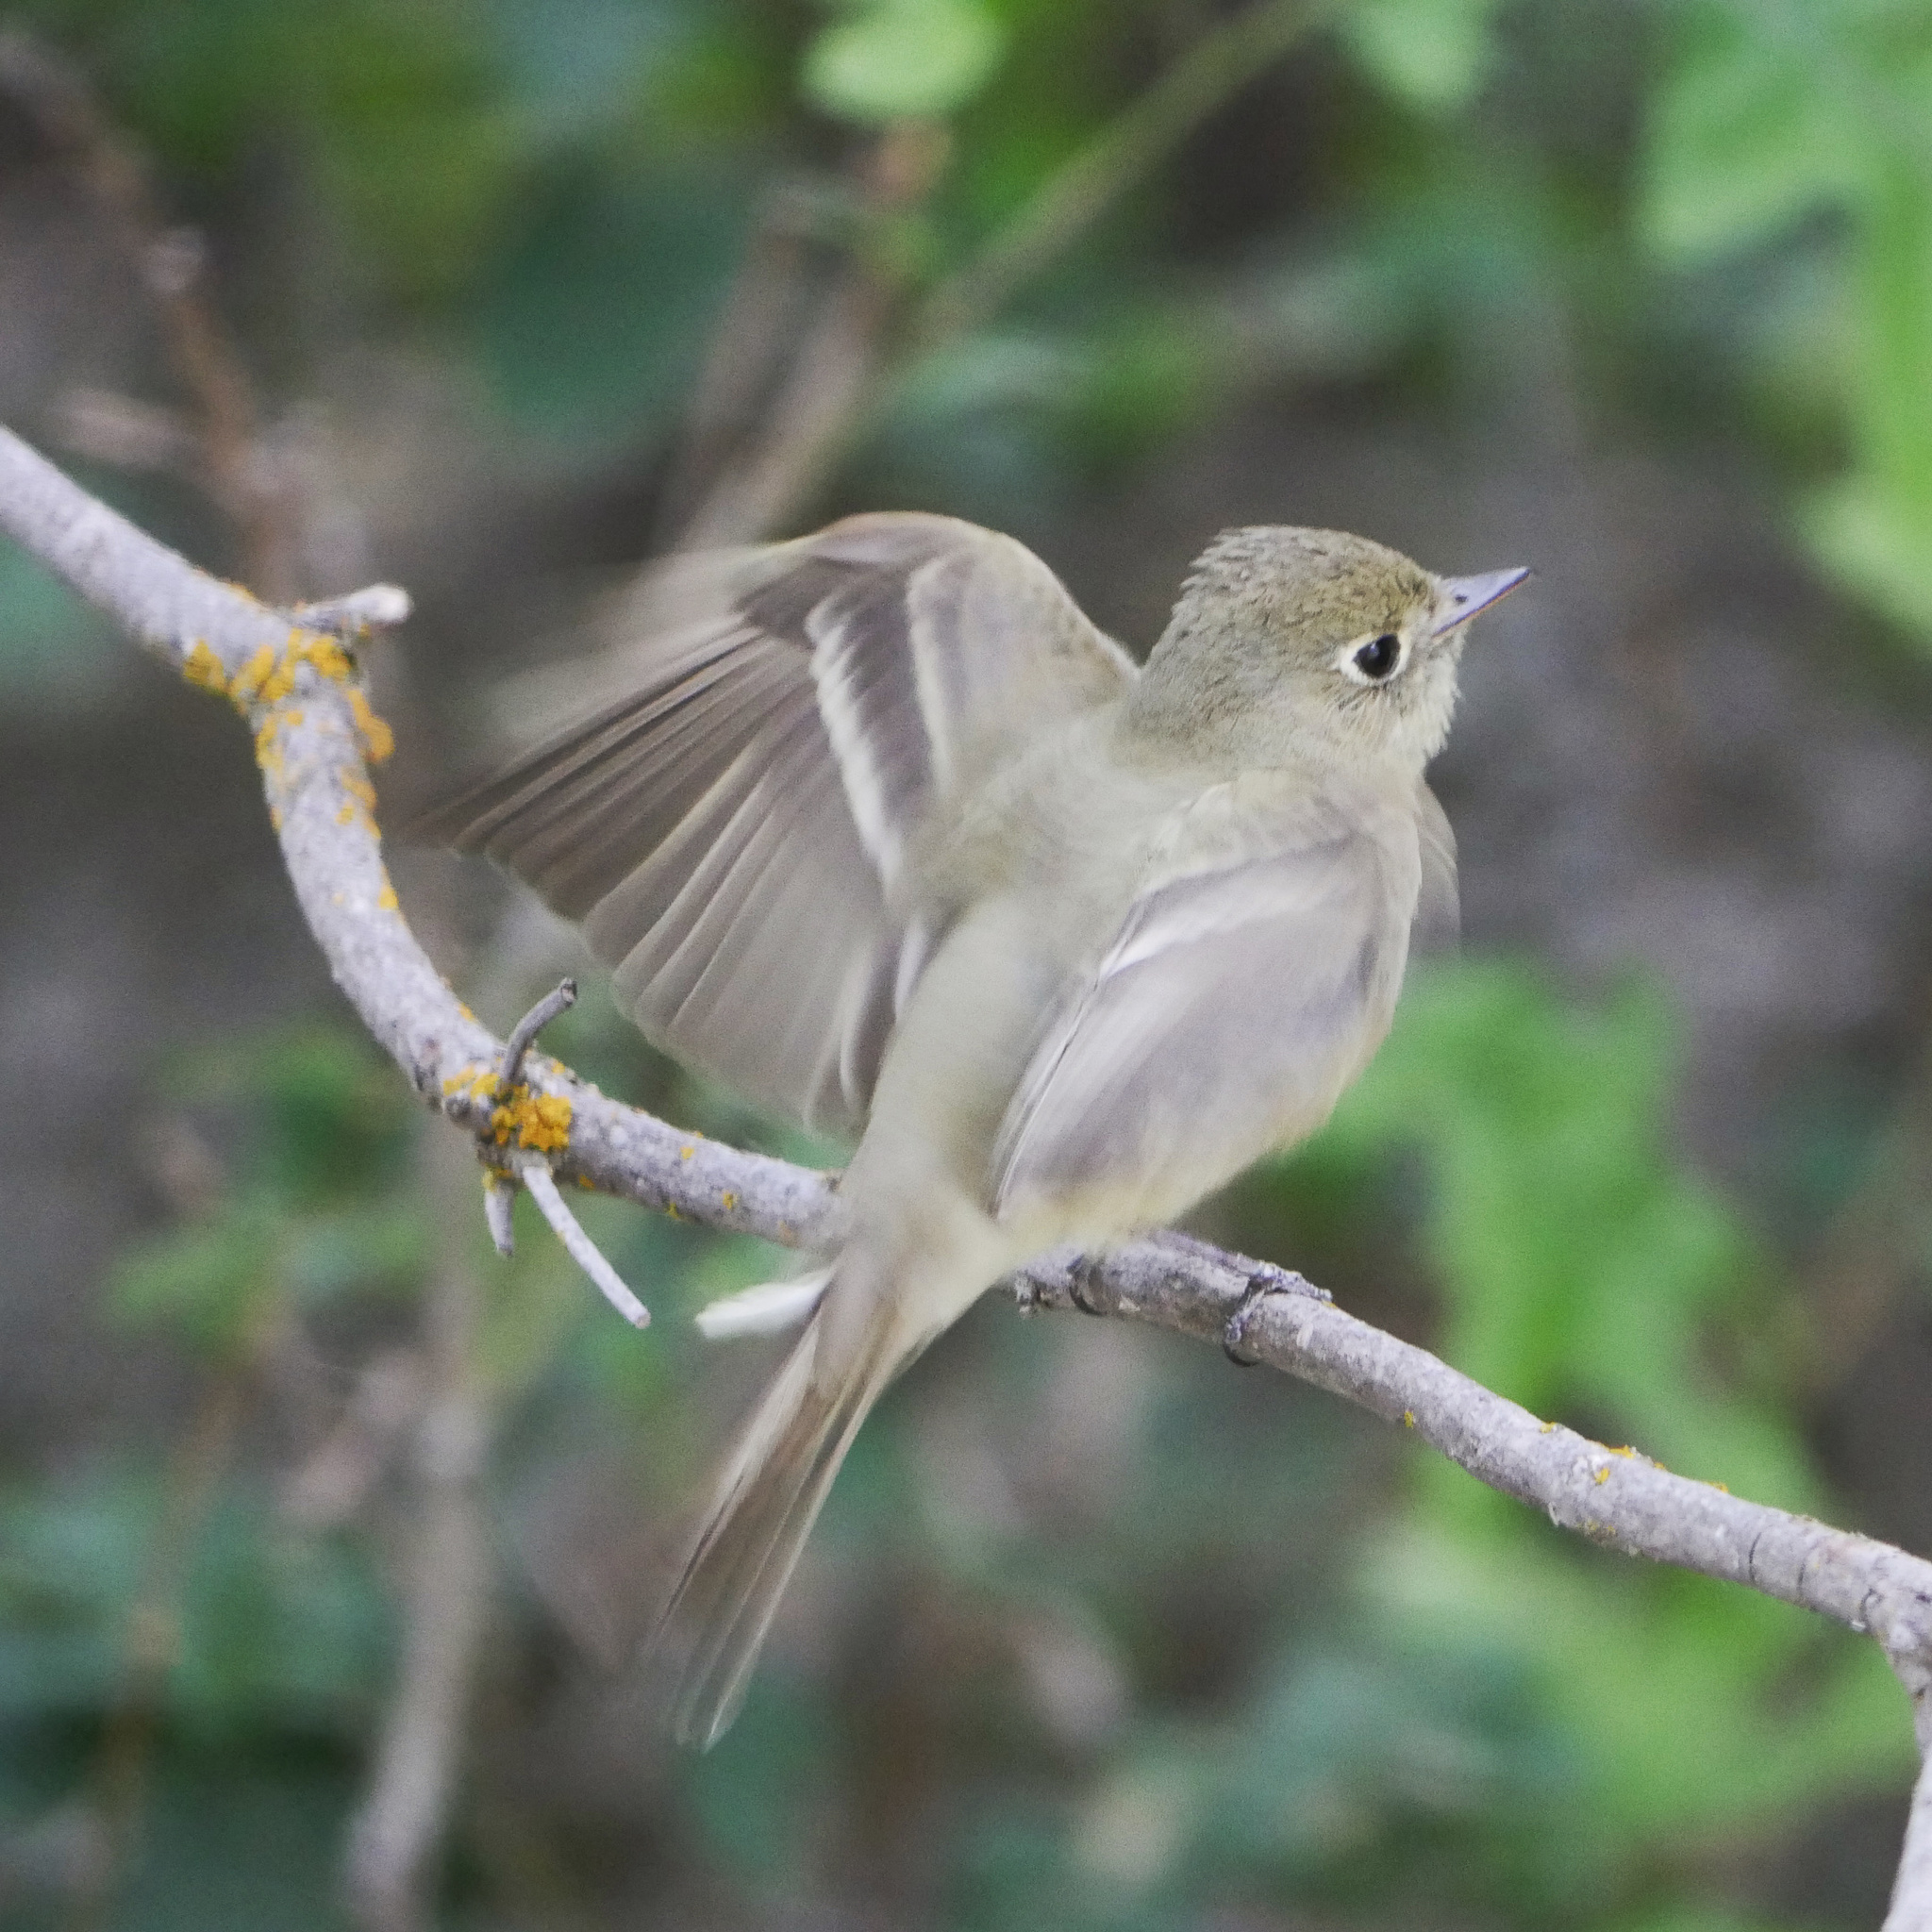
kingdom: Animalia
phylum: Chordata
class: Aves
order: Passeriformes
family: Tyrannidae
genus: Empidonax
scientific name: Empidonax difficilis
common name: Pacific-slope flycatcher
